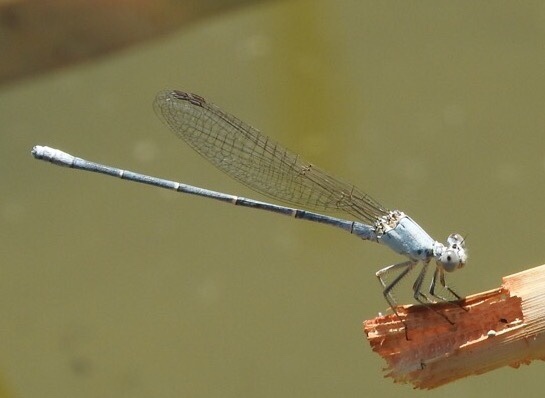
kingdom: Animalia
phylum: Arthropoda
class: Insecta
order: Odonata
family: Coenagrionidae
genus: Argia
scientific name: Argia moesta
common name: Powdered dancer
